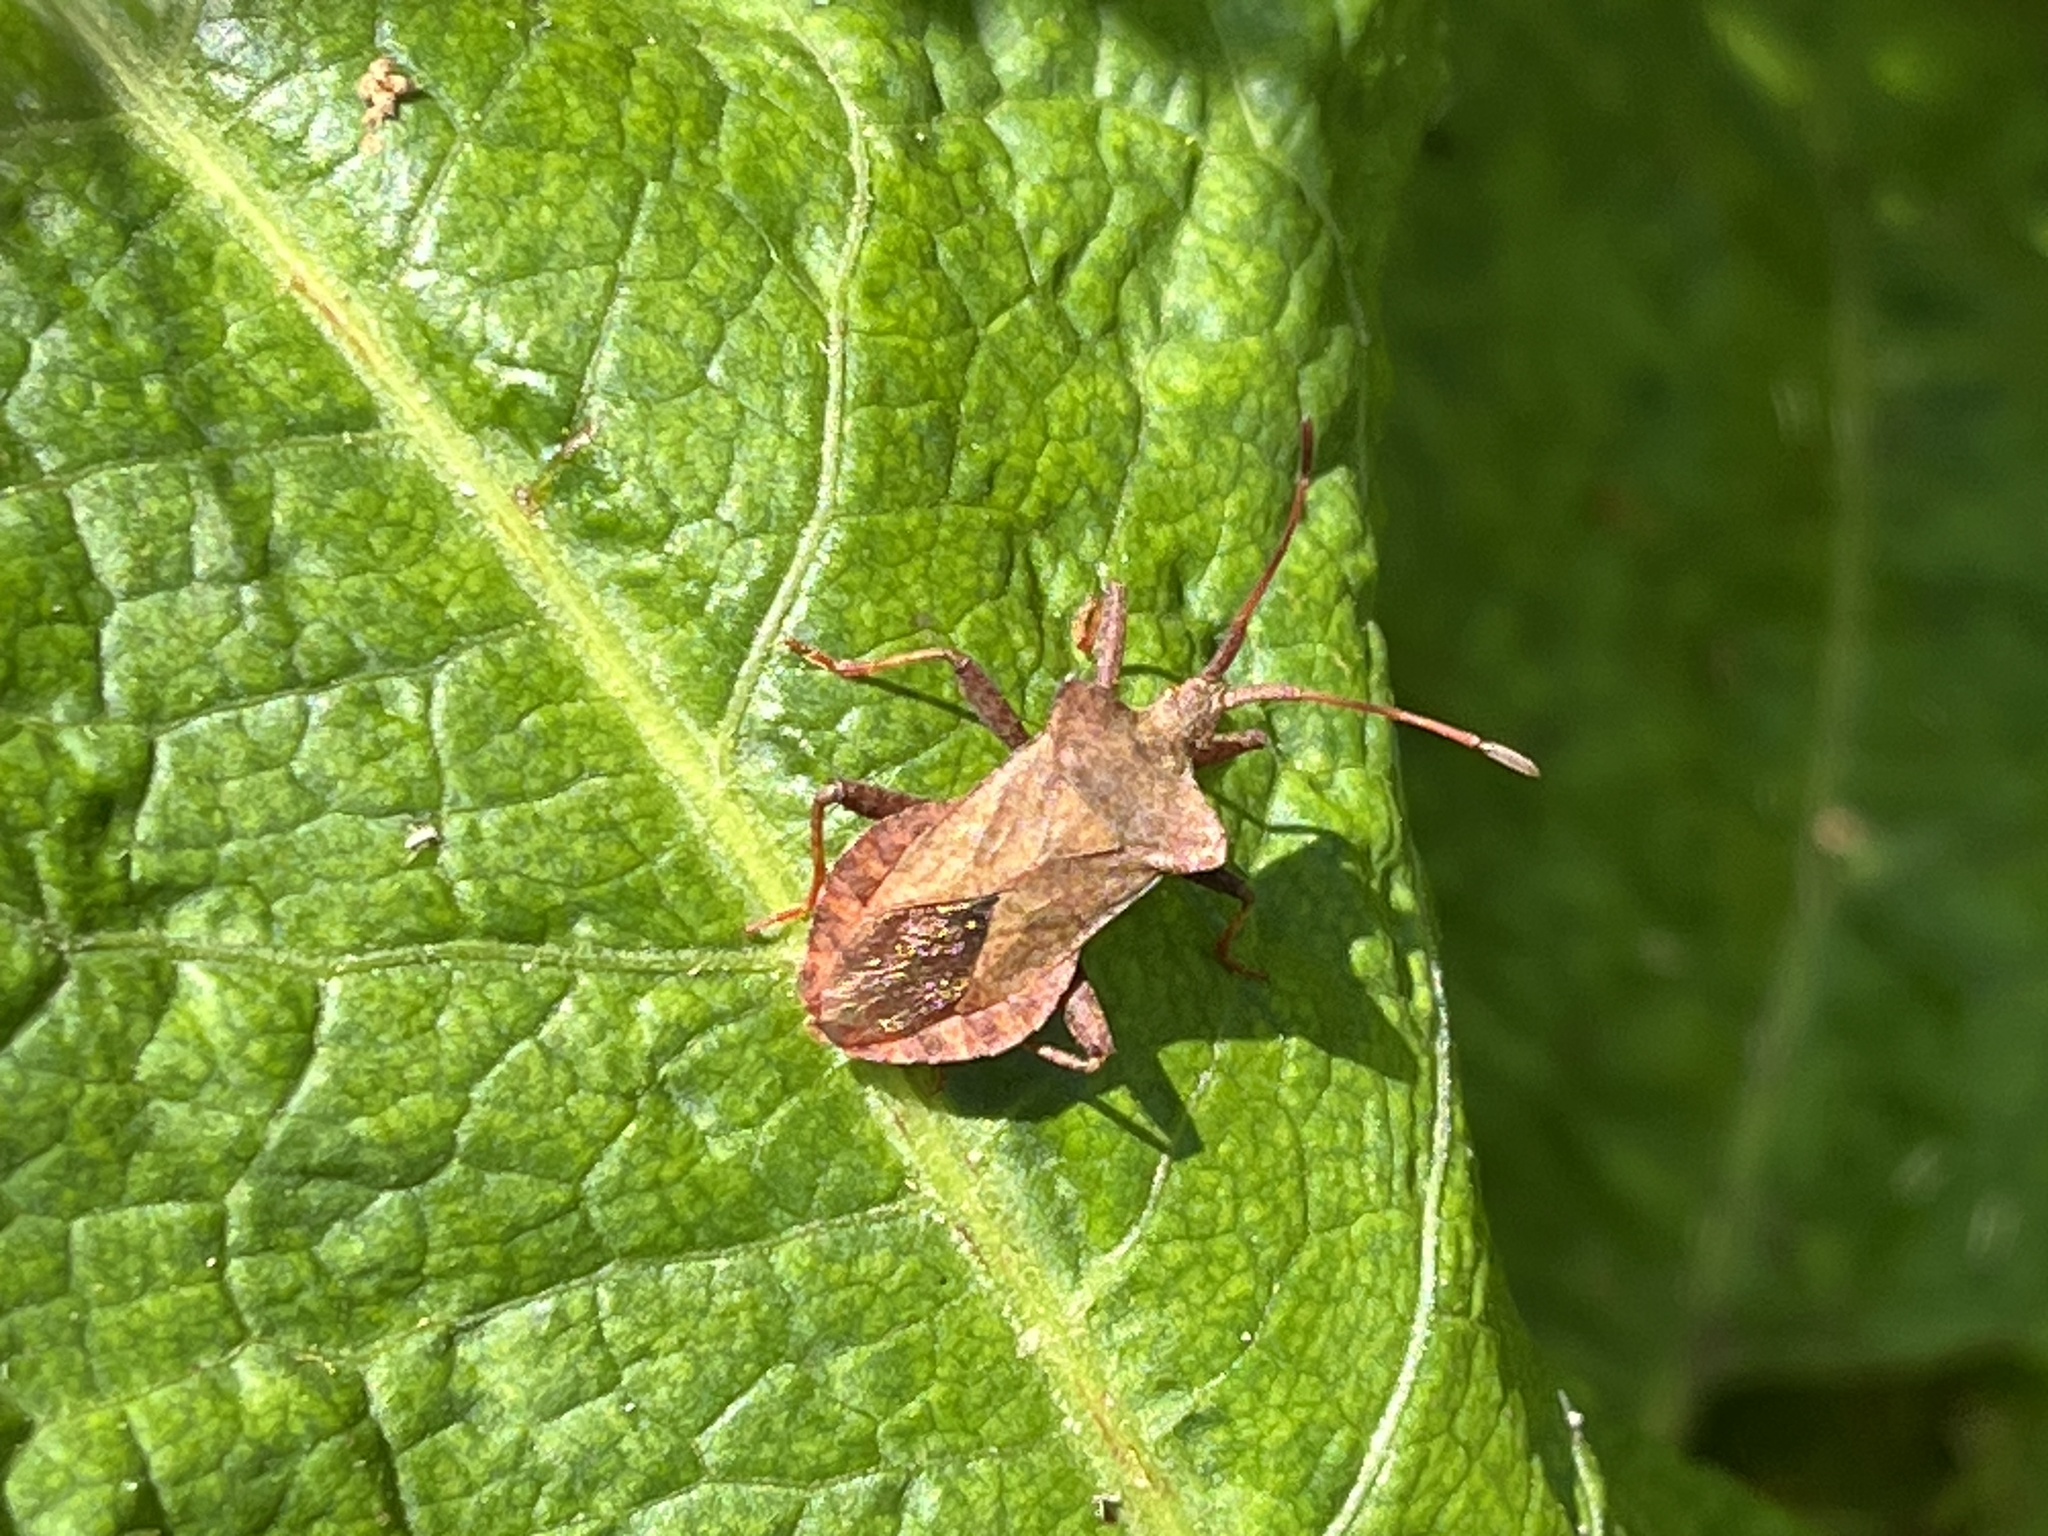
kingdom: Animalia
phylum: Arthropoda
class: Insecta
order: Hemiptera
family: Coreidae
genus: Coreus
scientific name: Coreus marginatus
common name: Dock bug
